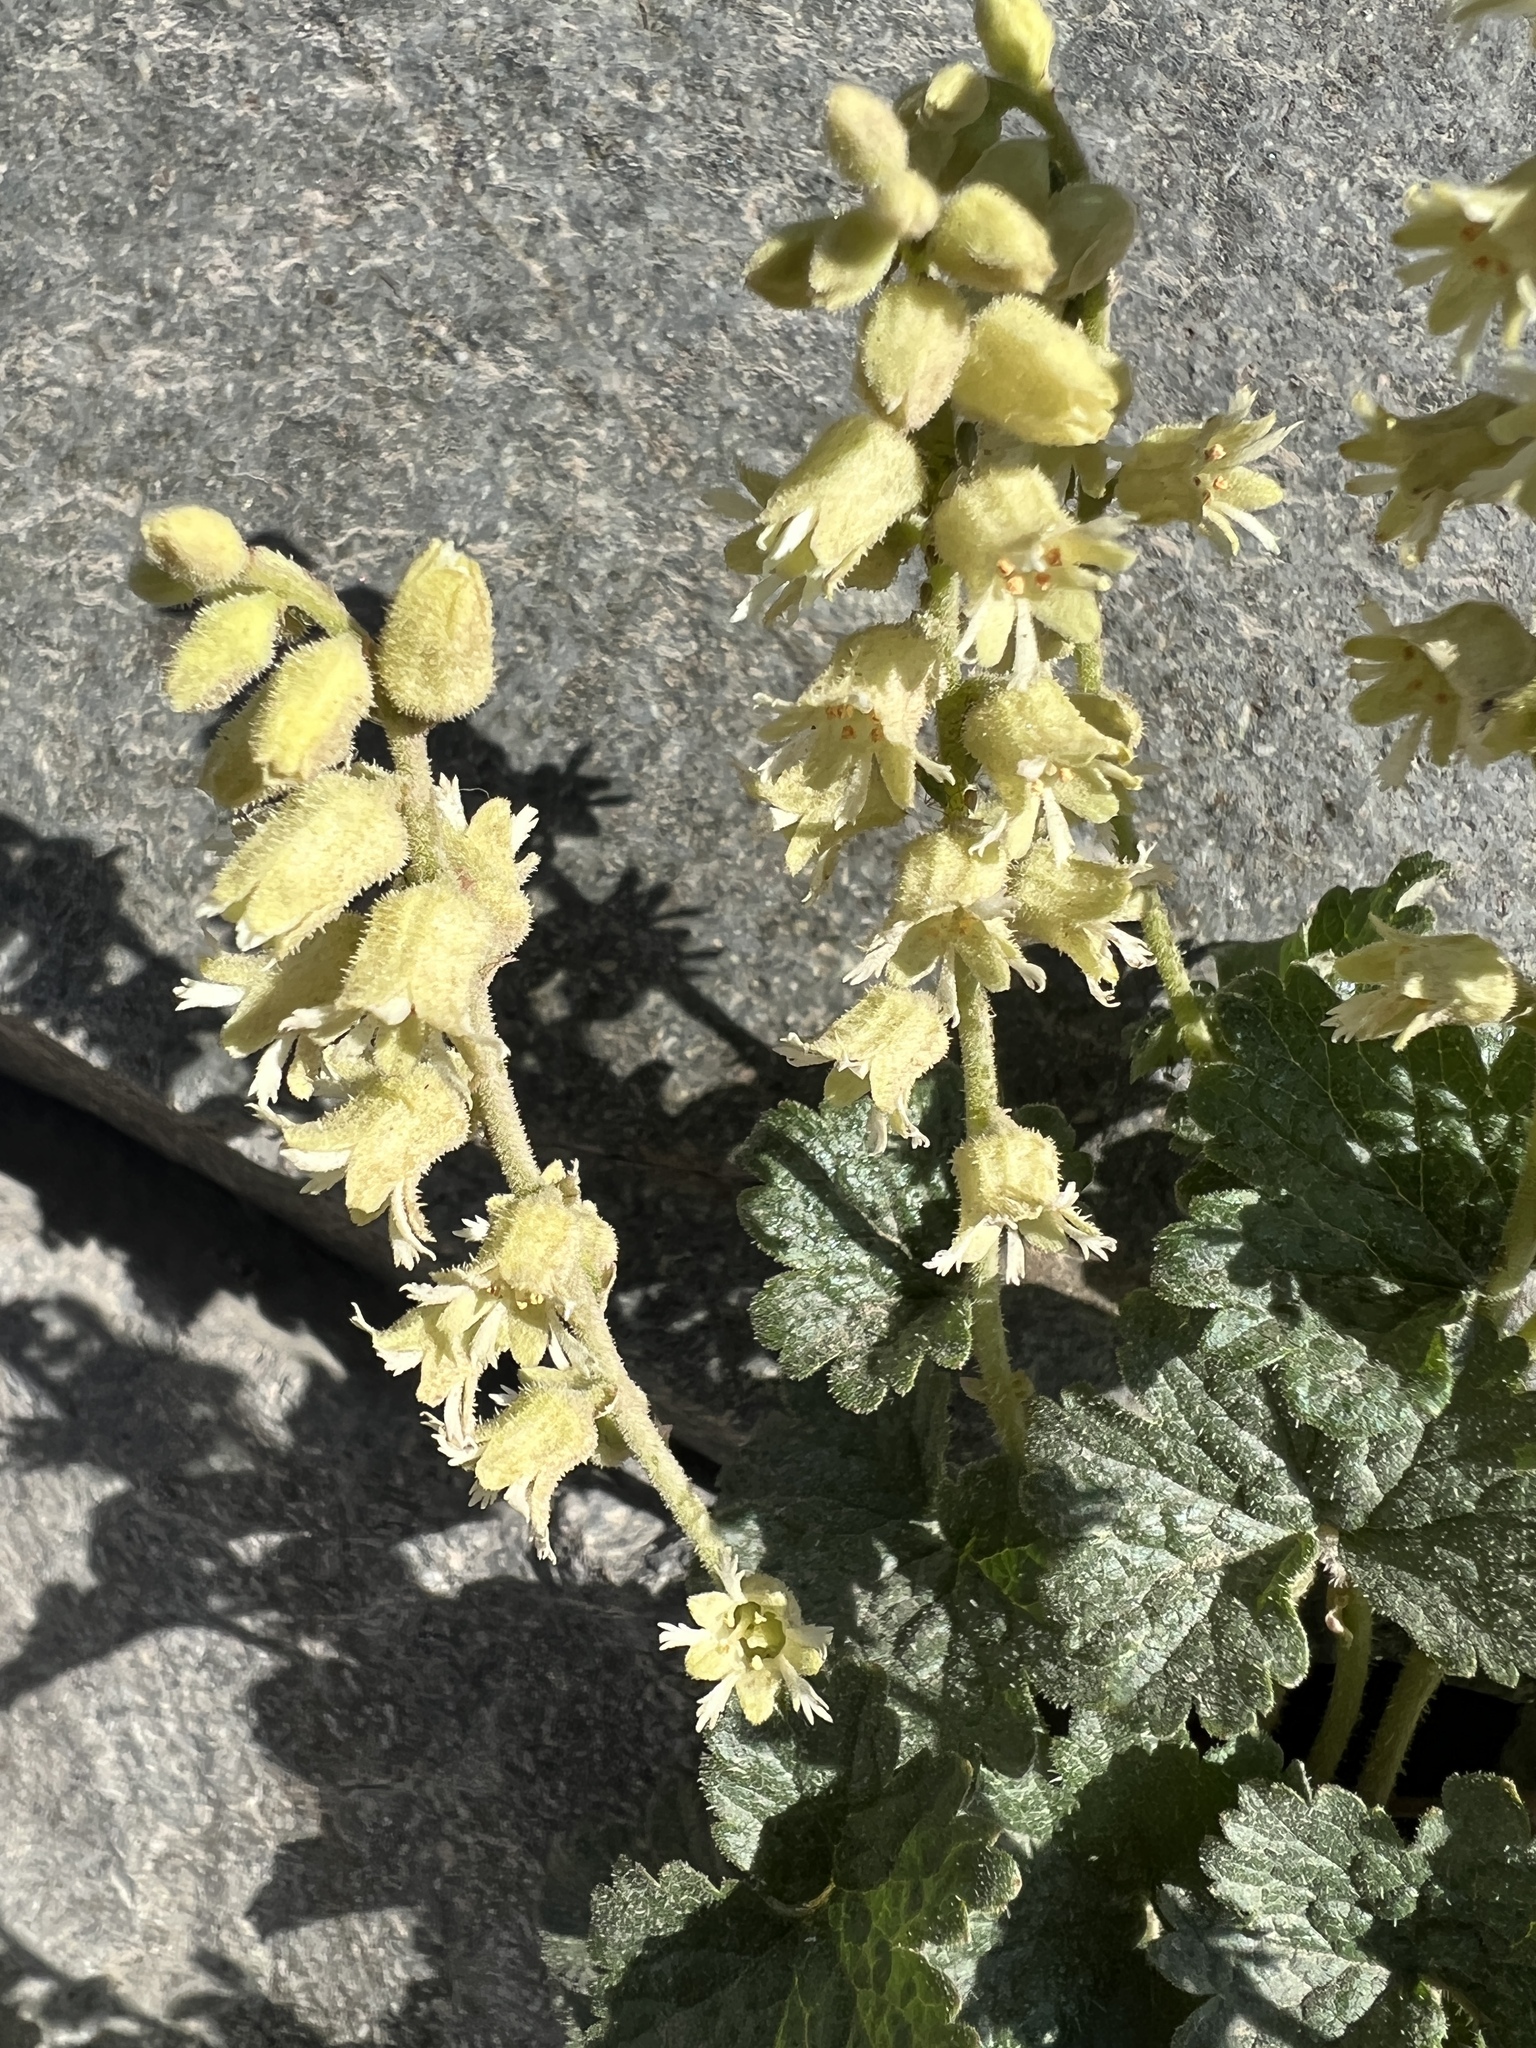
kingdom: Plantae
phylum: Tracheophyta
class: Magnoliopsida
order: Saxifragales
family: Saxifragaceae
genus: Elmera
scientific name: Elmera racemosa
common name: Elmera
